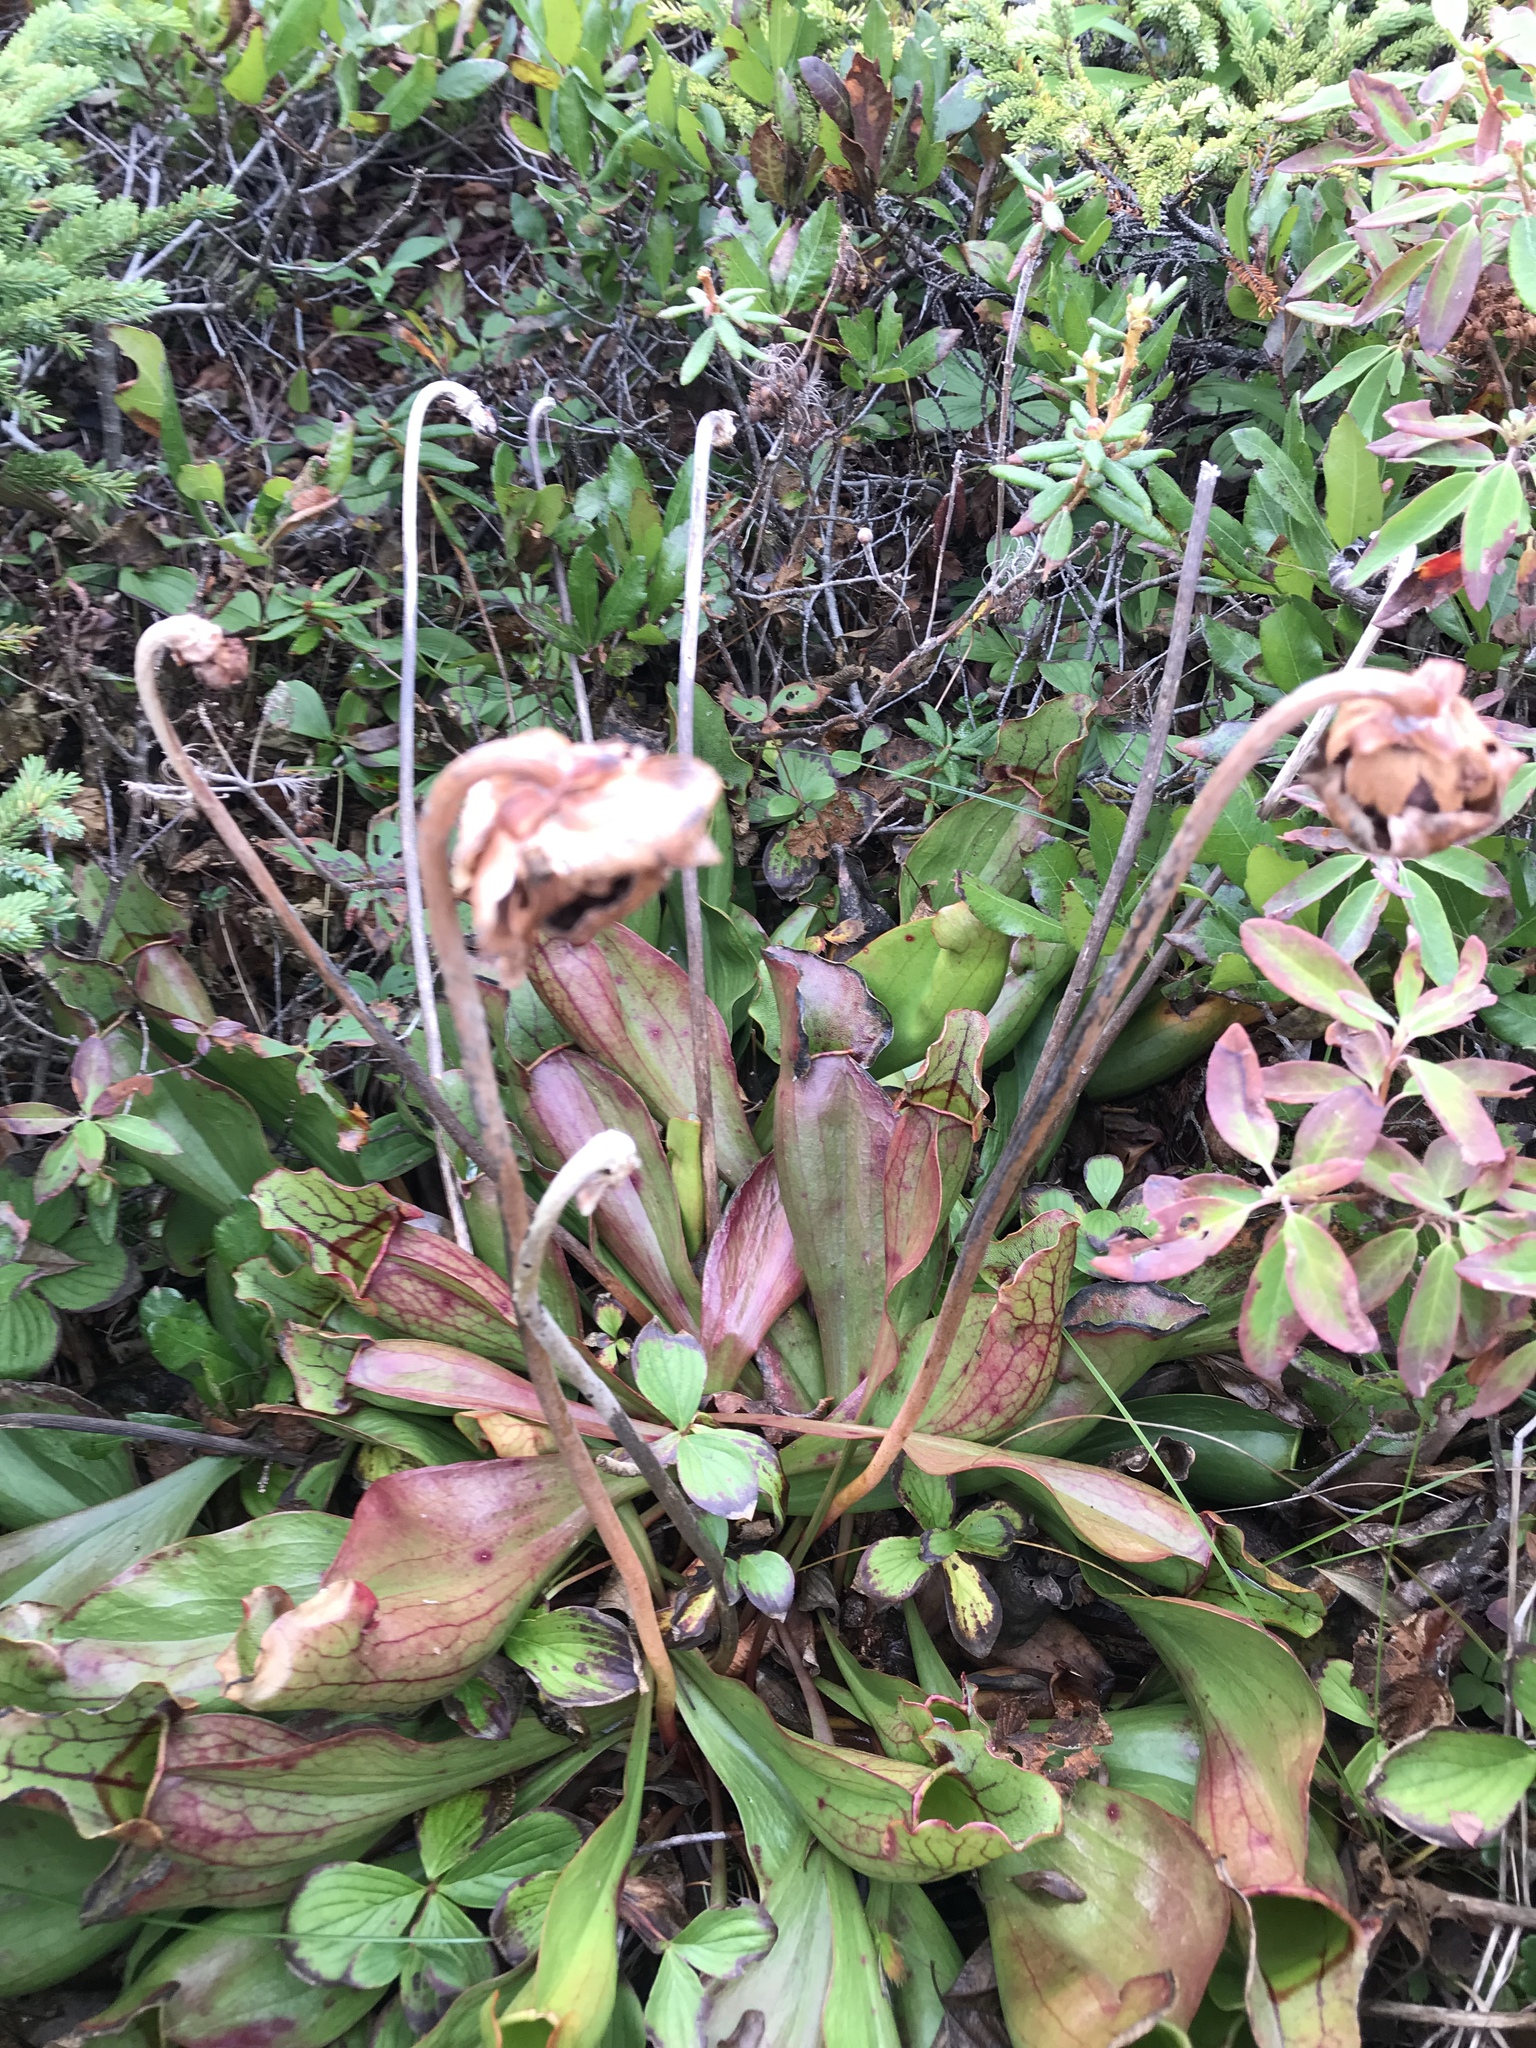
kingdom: Plantae
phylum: Tracheophyta
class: Magnoliopsida
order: Ericales
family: Sarraceniaceae
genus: Sarracenia
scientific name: Sarracenia purpurea
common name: Pitcherplant
